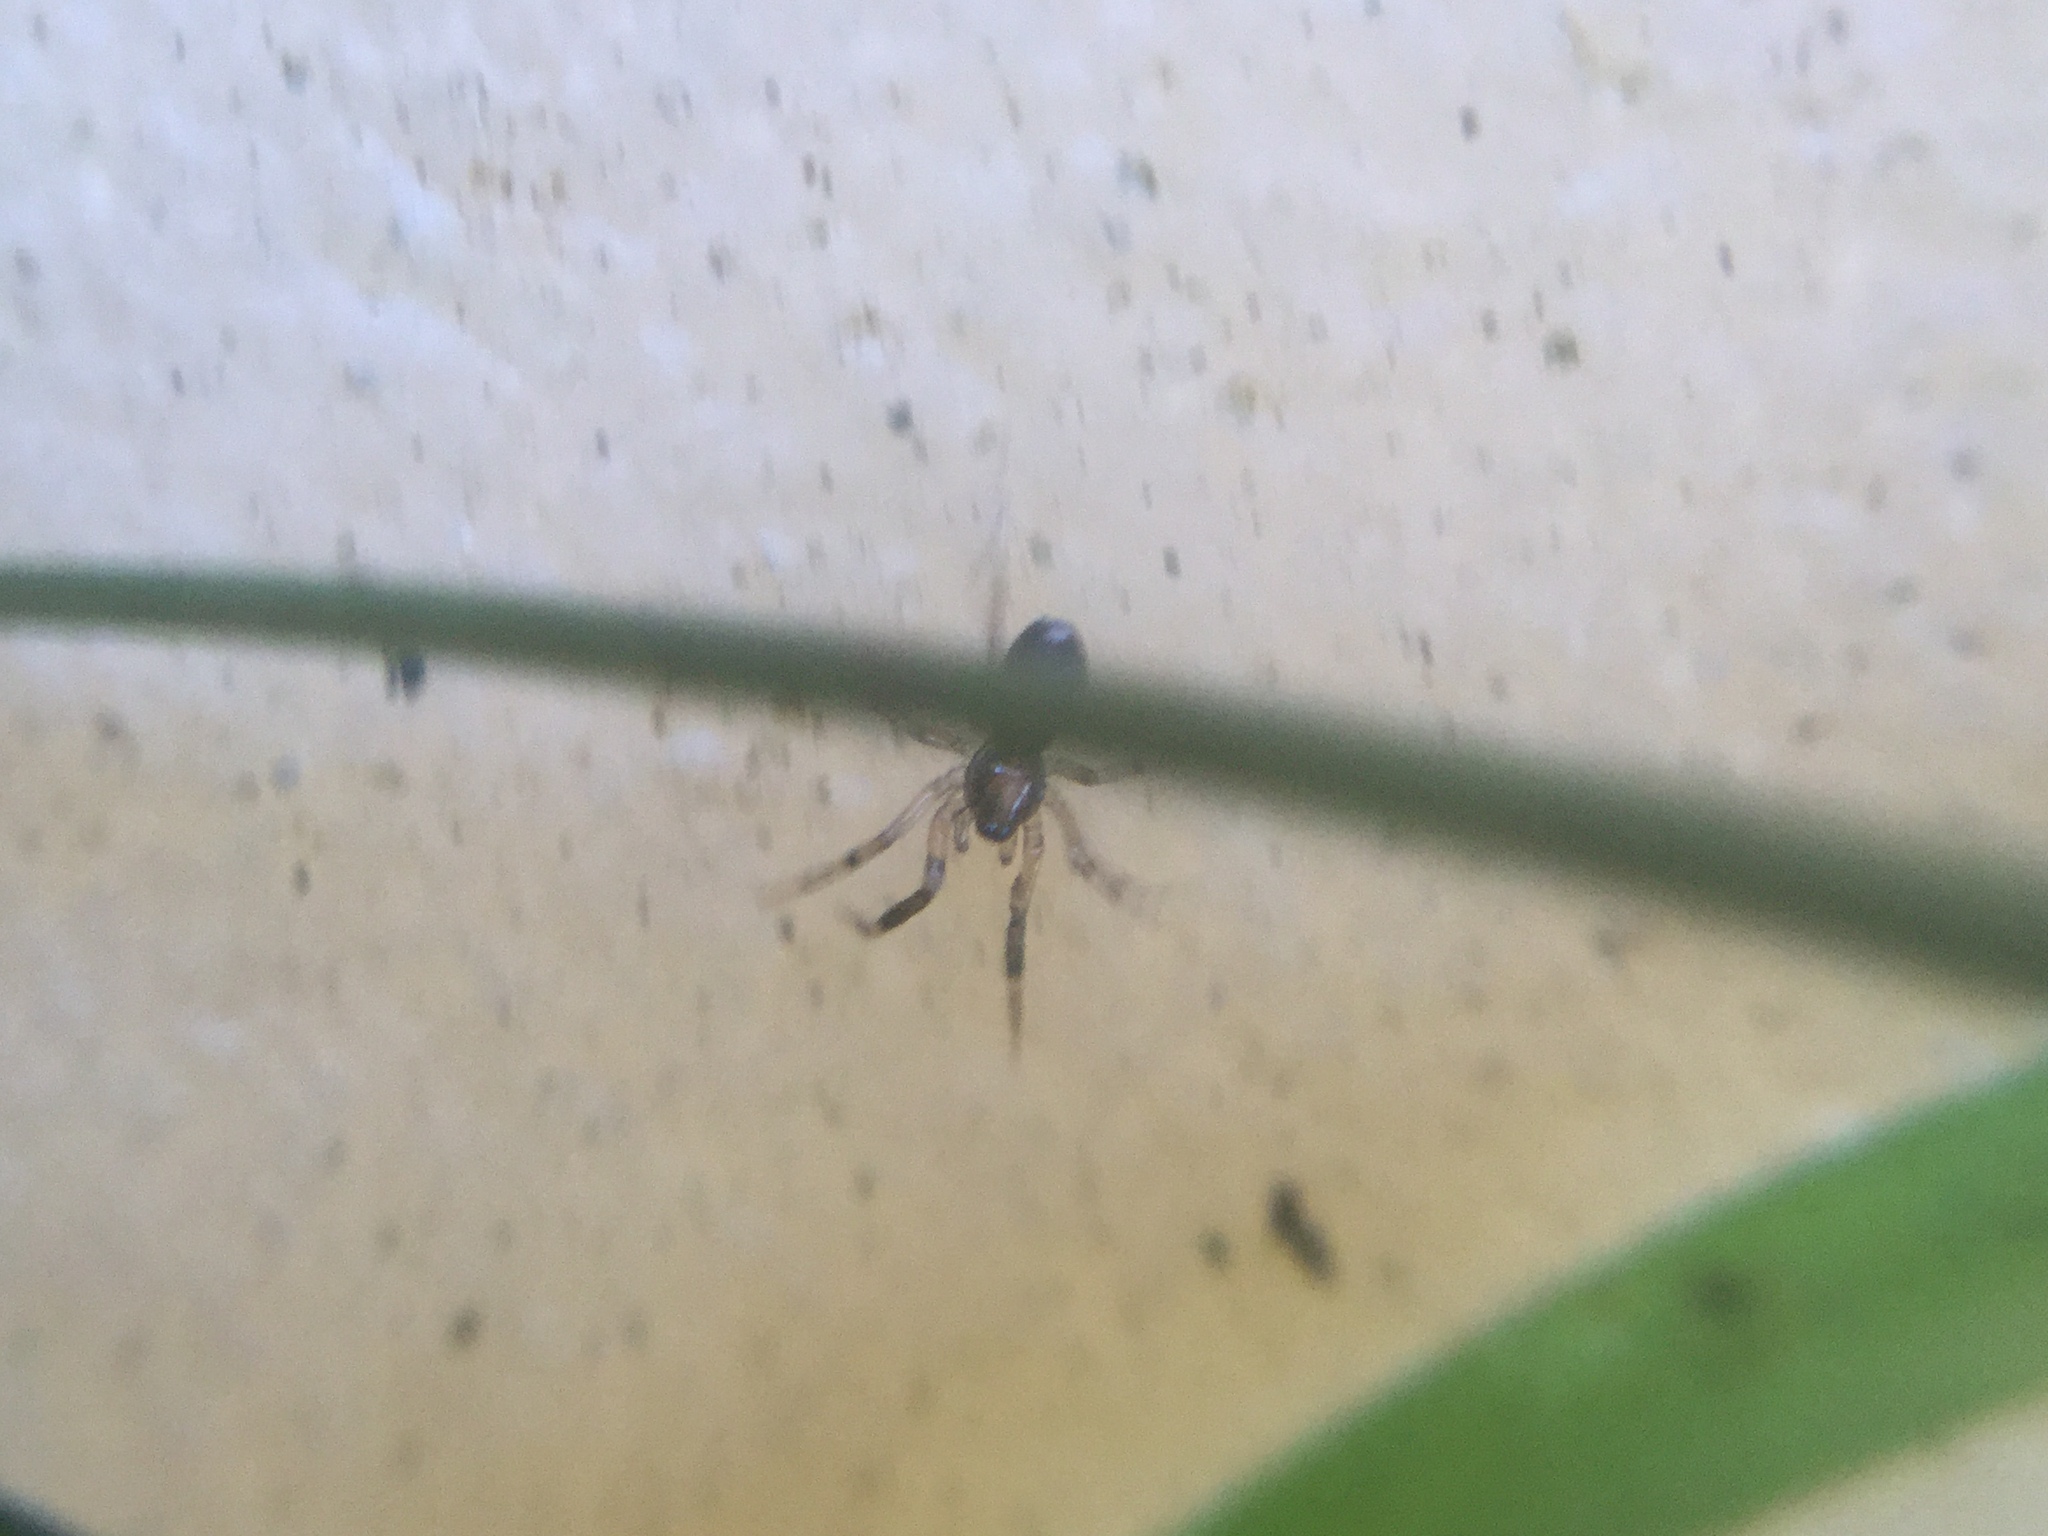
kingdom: Animalia
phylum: Arthropoda
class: Arachnida
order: Araneae
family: Phrurolithidae
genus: Phrurotimpus
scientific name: Phrurotimpus borealis
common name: Greater ant-mimic corinne spider
